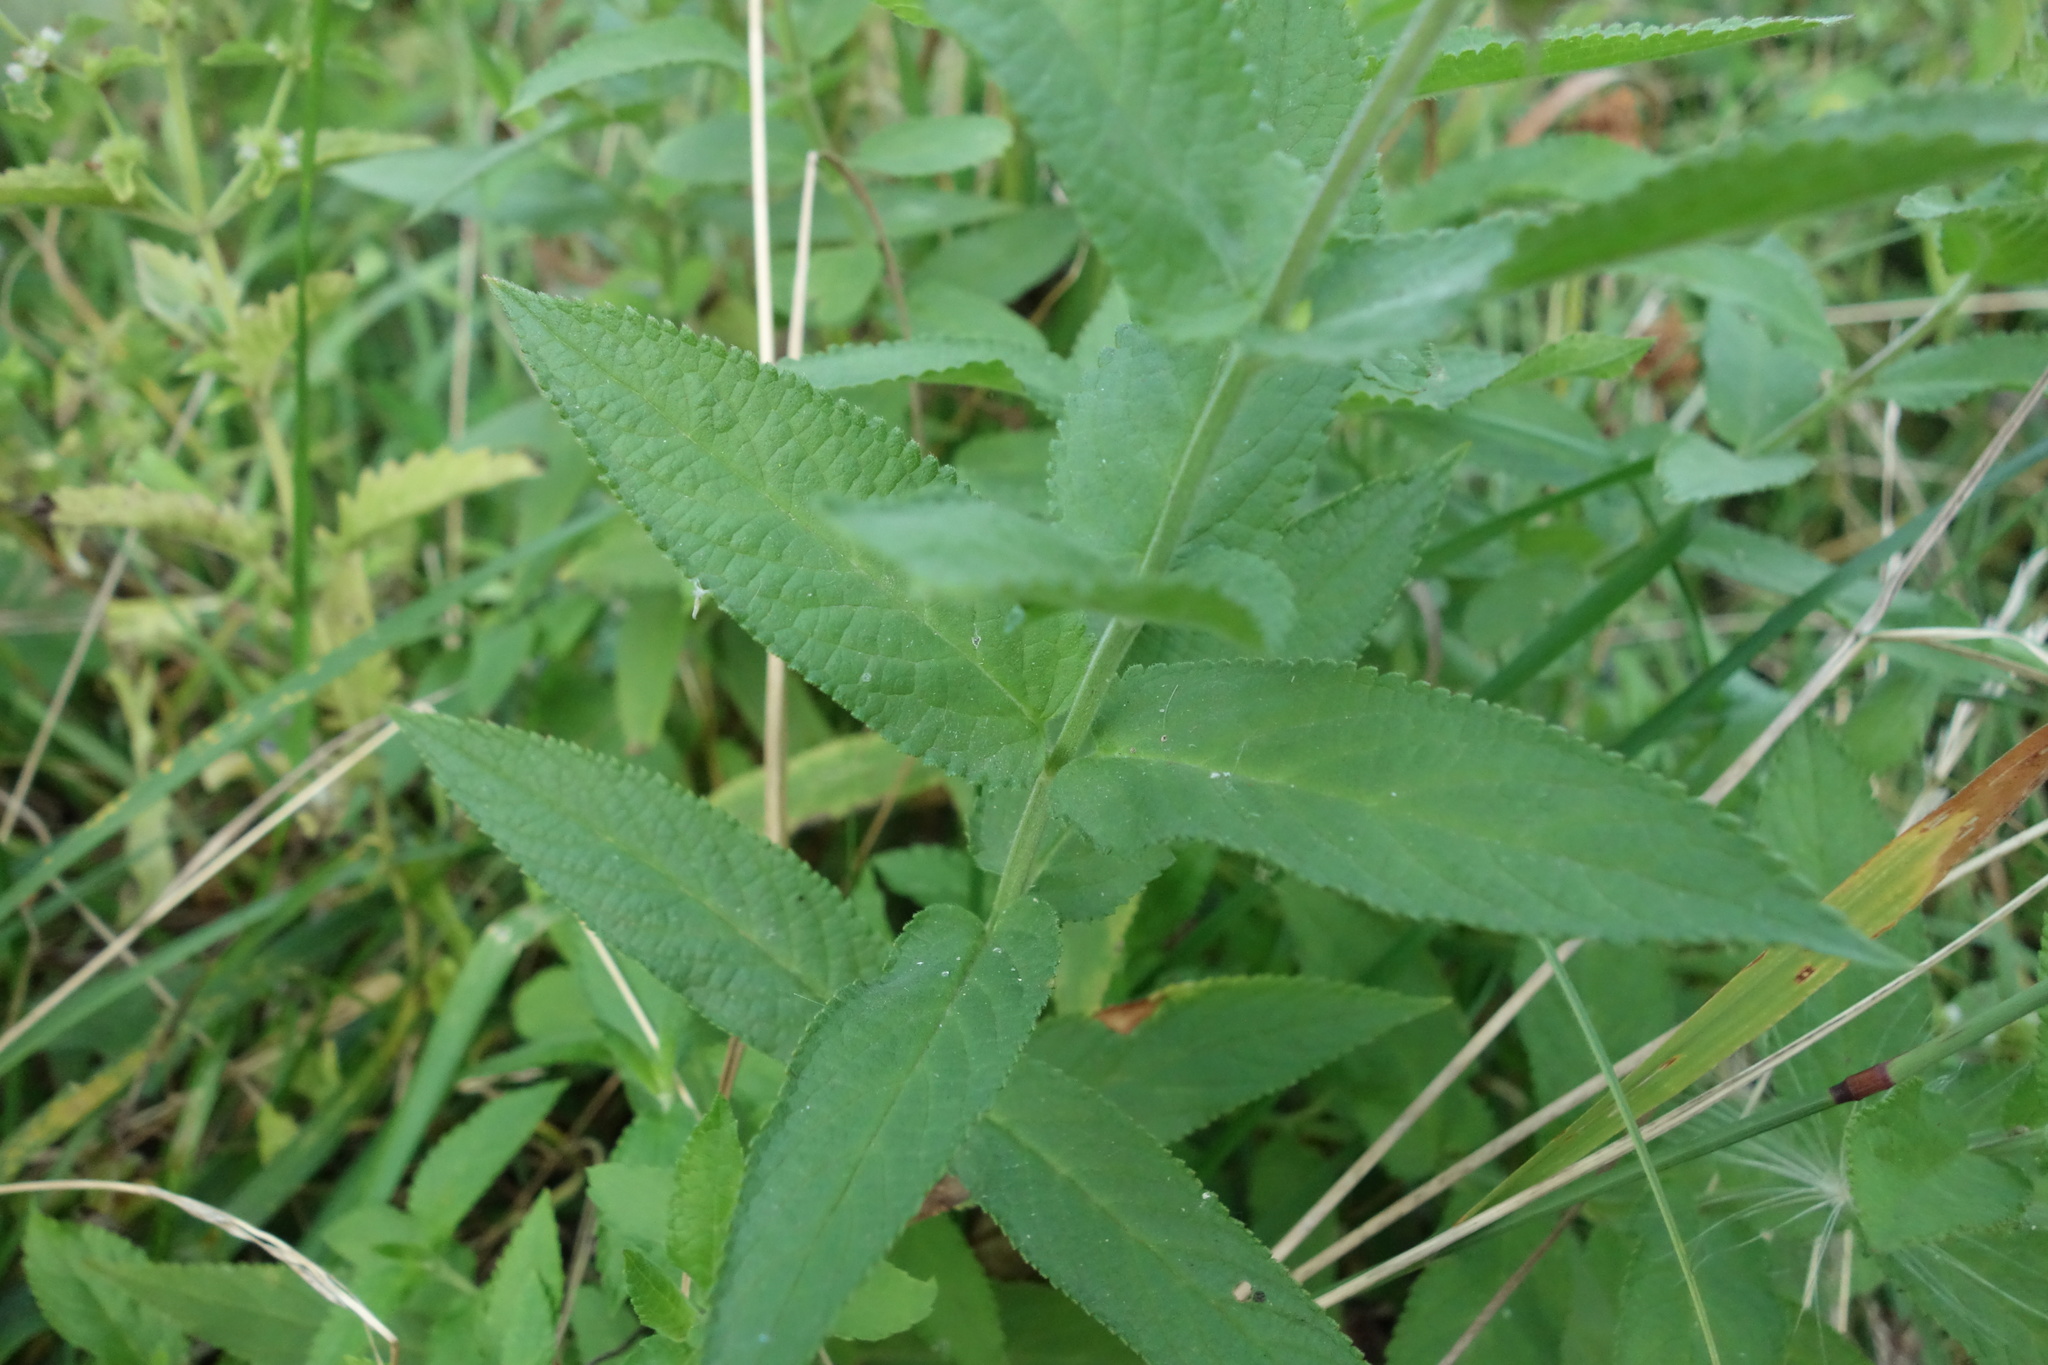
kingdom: Plantae
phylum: Tracheophyta
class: Magnoliopsida
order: Lamiales
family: Lamiaceae
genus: Stachys
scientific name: Stachys palustris
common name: Marsh woundwort
